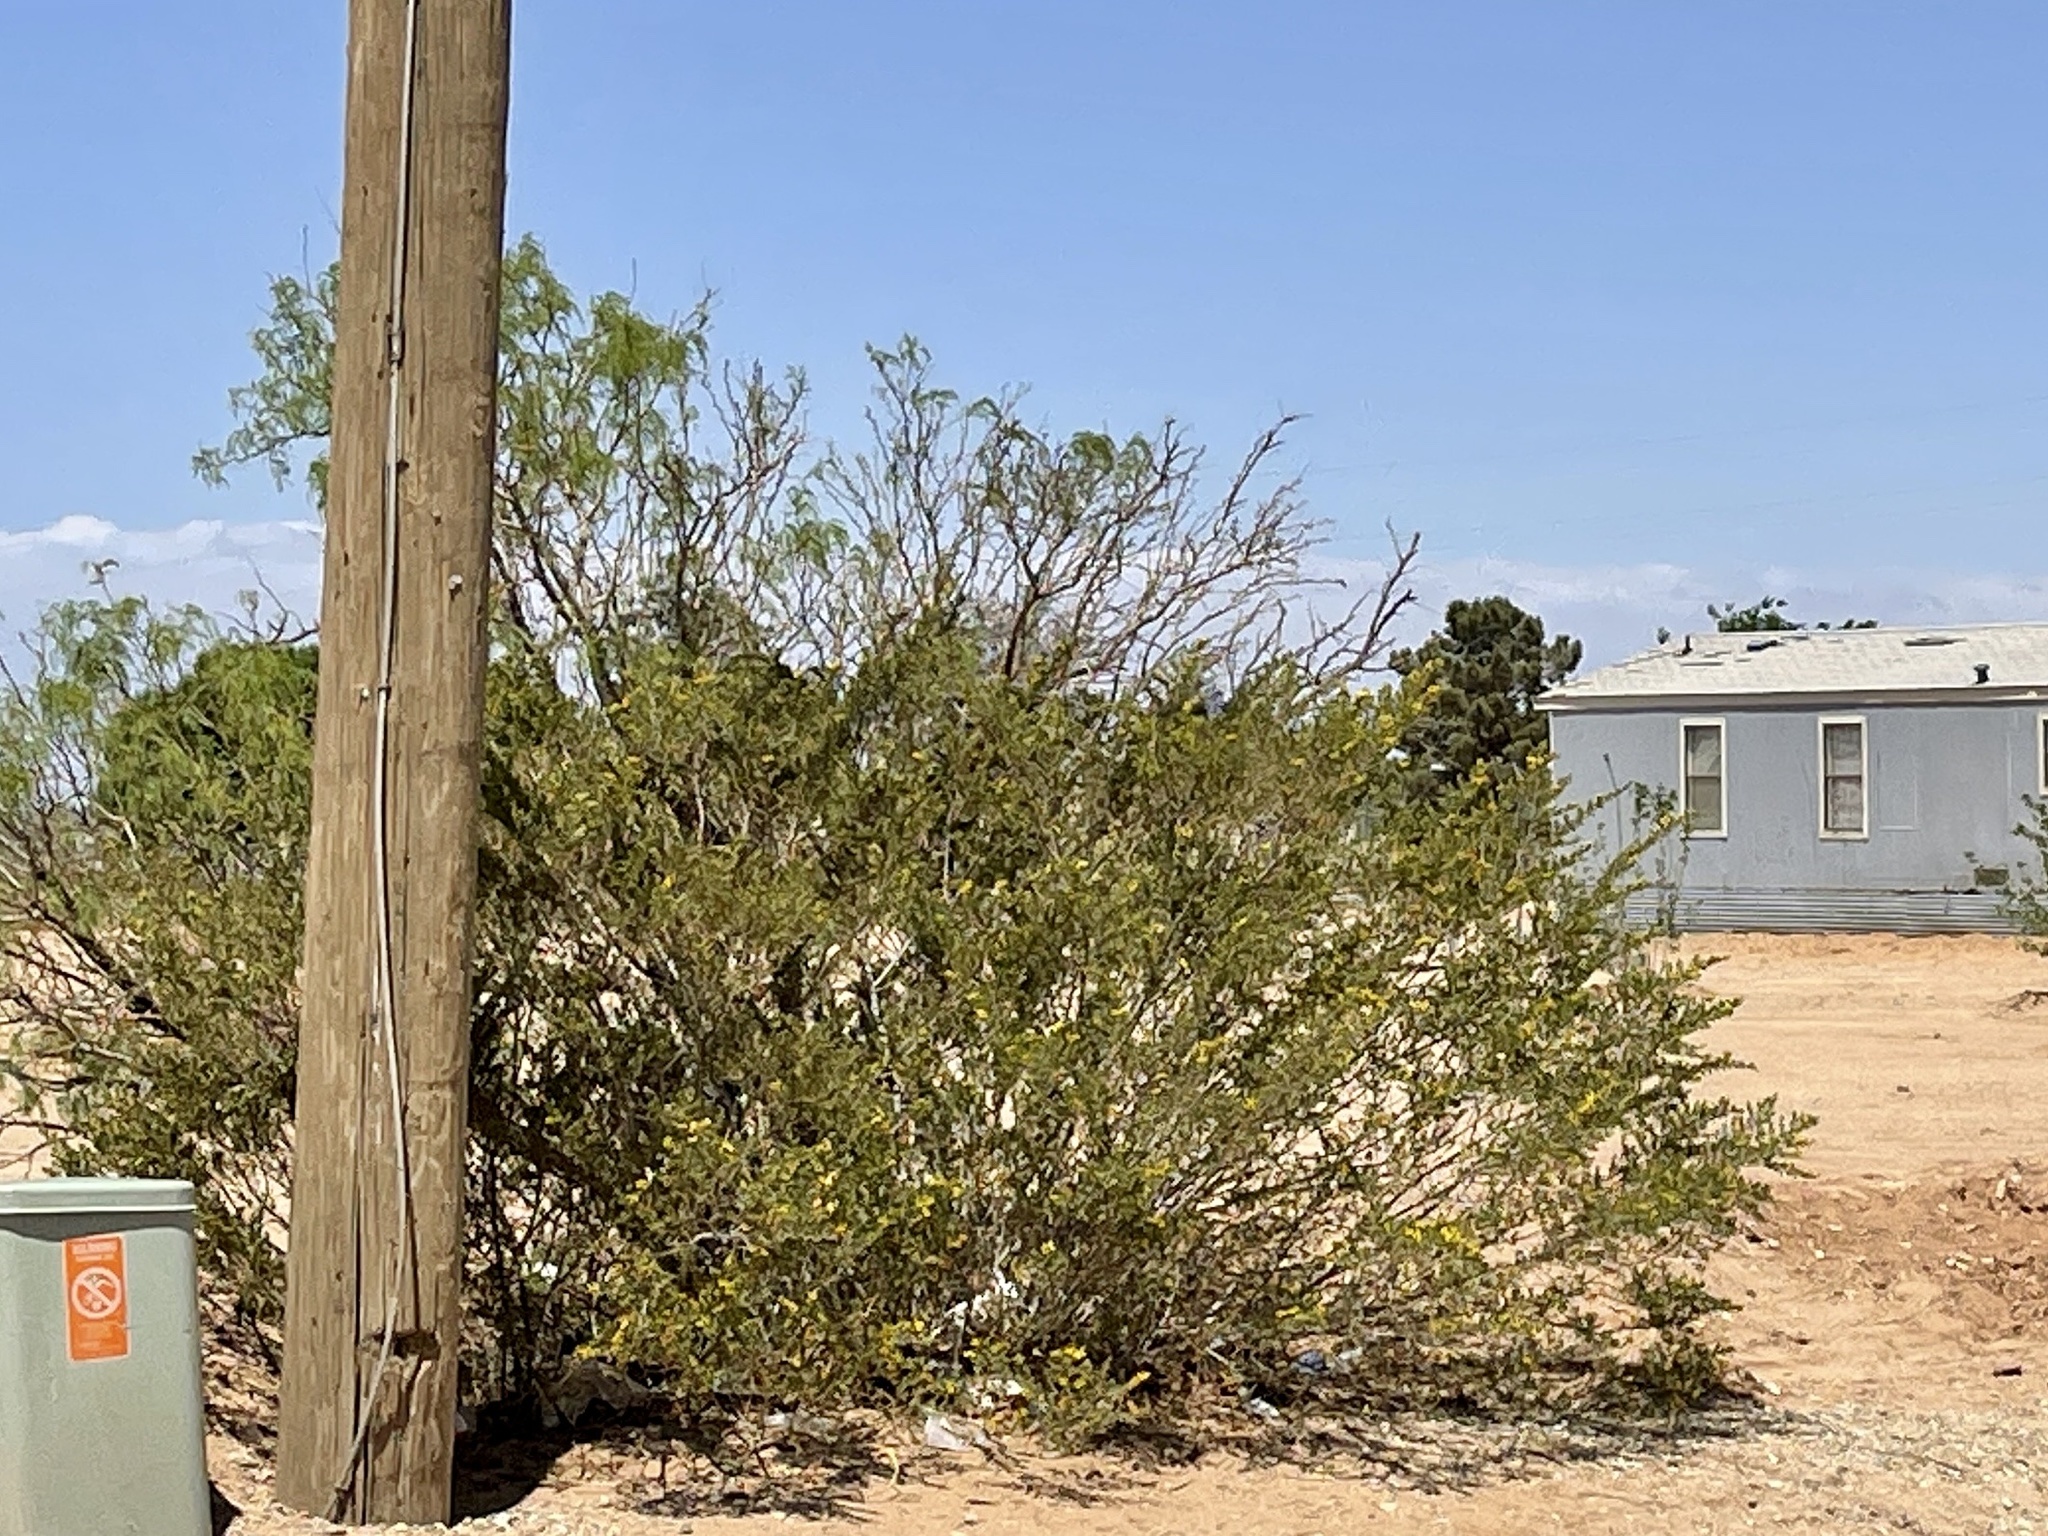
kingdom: Plantae
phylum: Tracheophyta
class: Magnoliopsida
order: Zygophyllales
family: Zygophyllaceae
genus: Larrea
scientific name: Larrea tridentata
